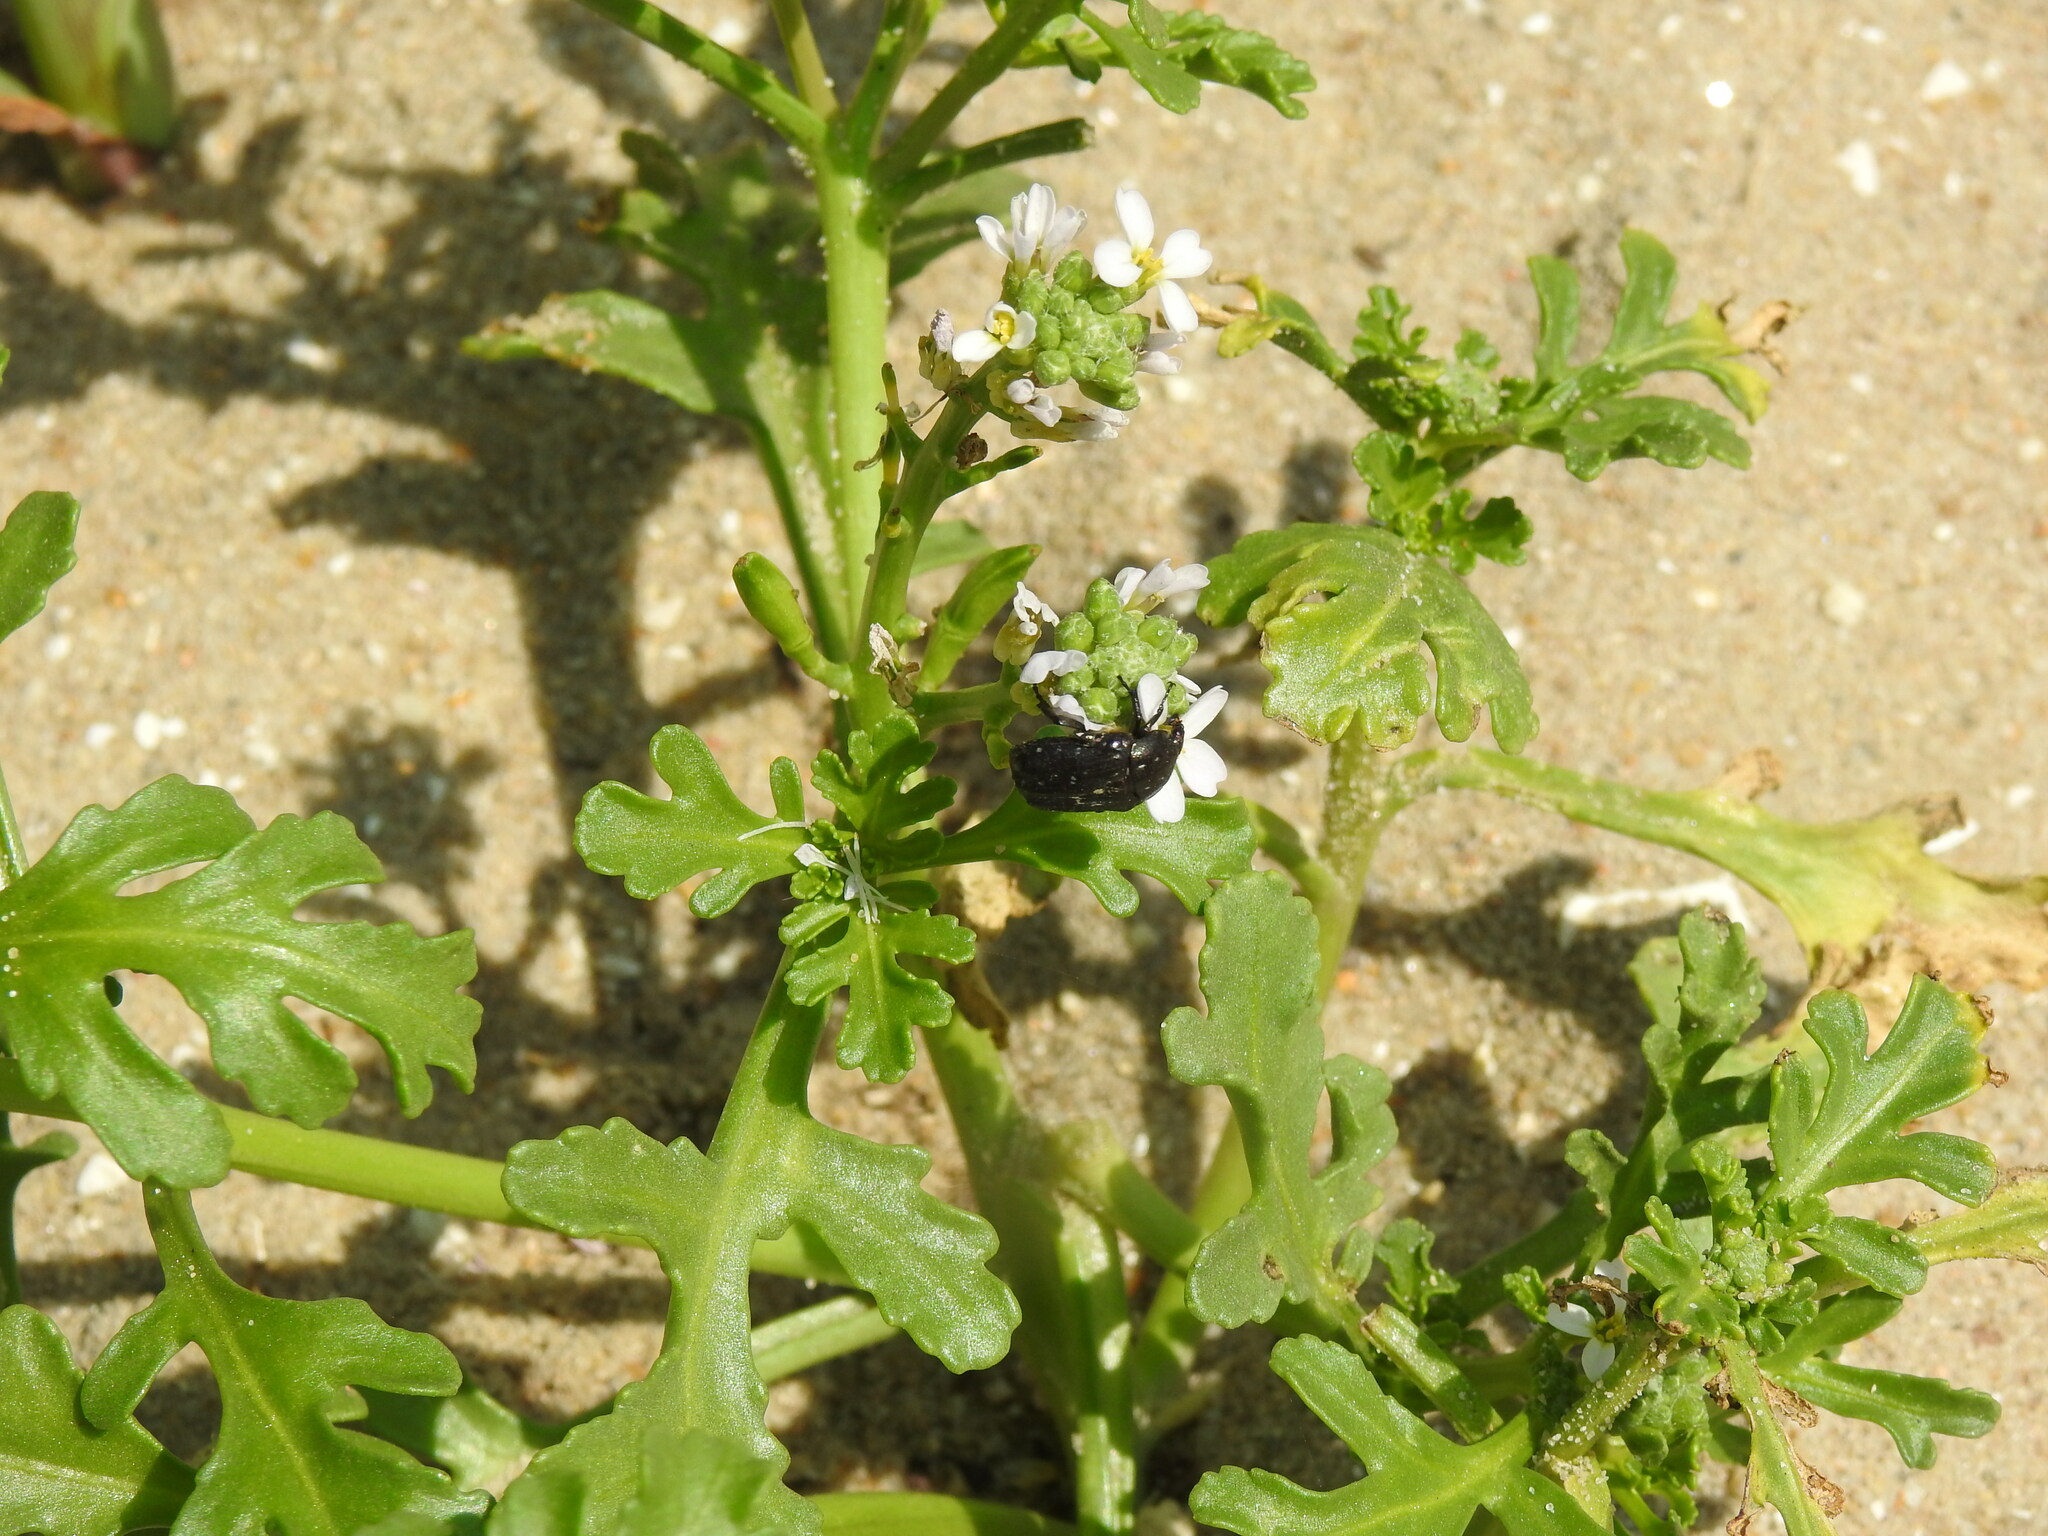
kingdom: Plantae
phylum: Tracheophyta
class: Magnoliopsida
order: Brassicales
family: Brassicaceae
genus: Cakile
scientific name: Cakile maritima
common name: Sea rocket
